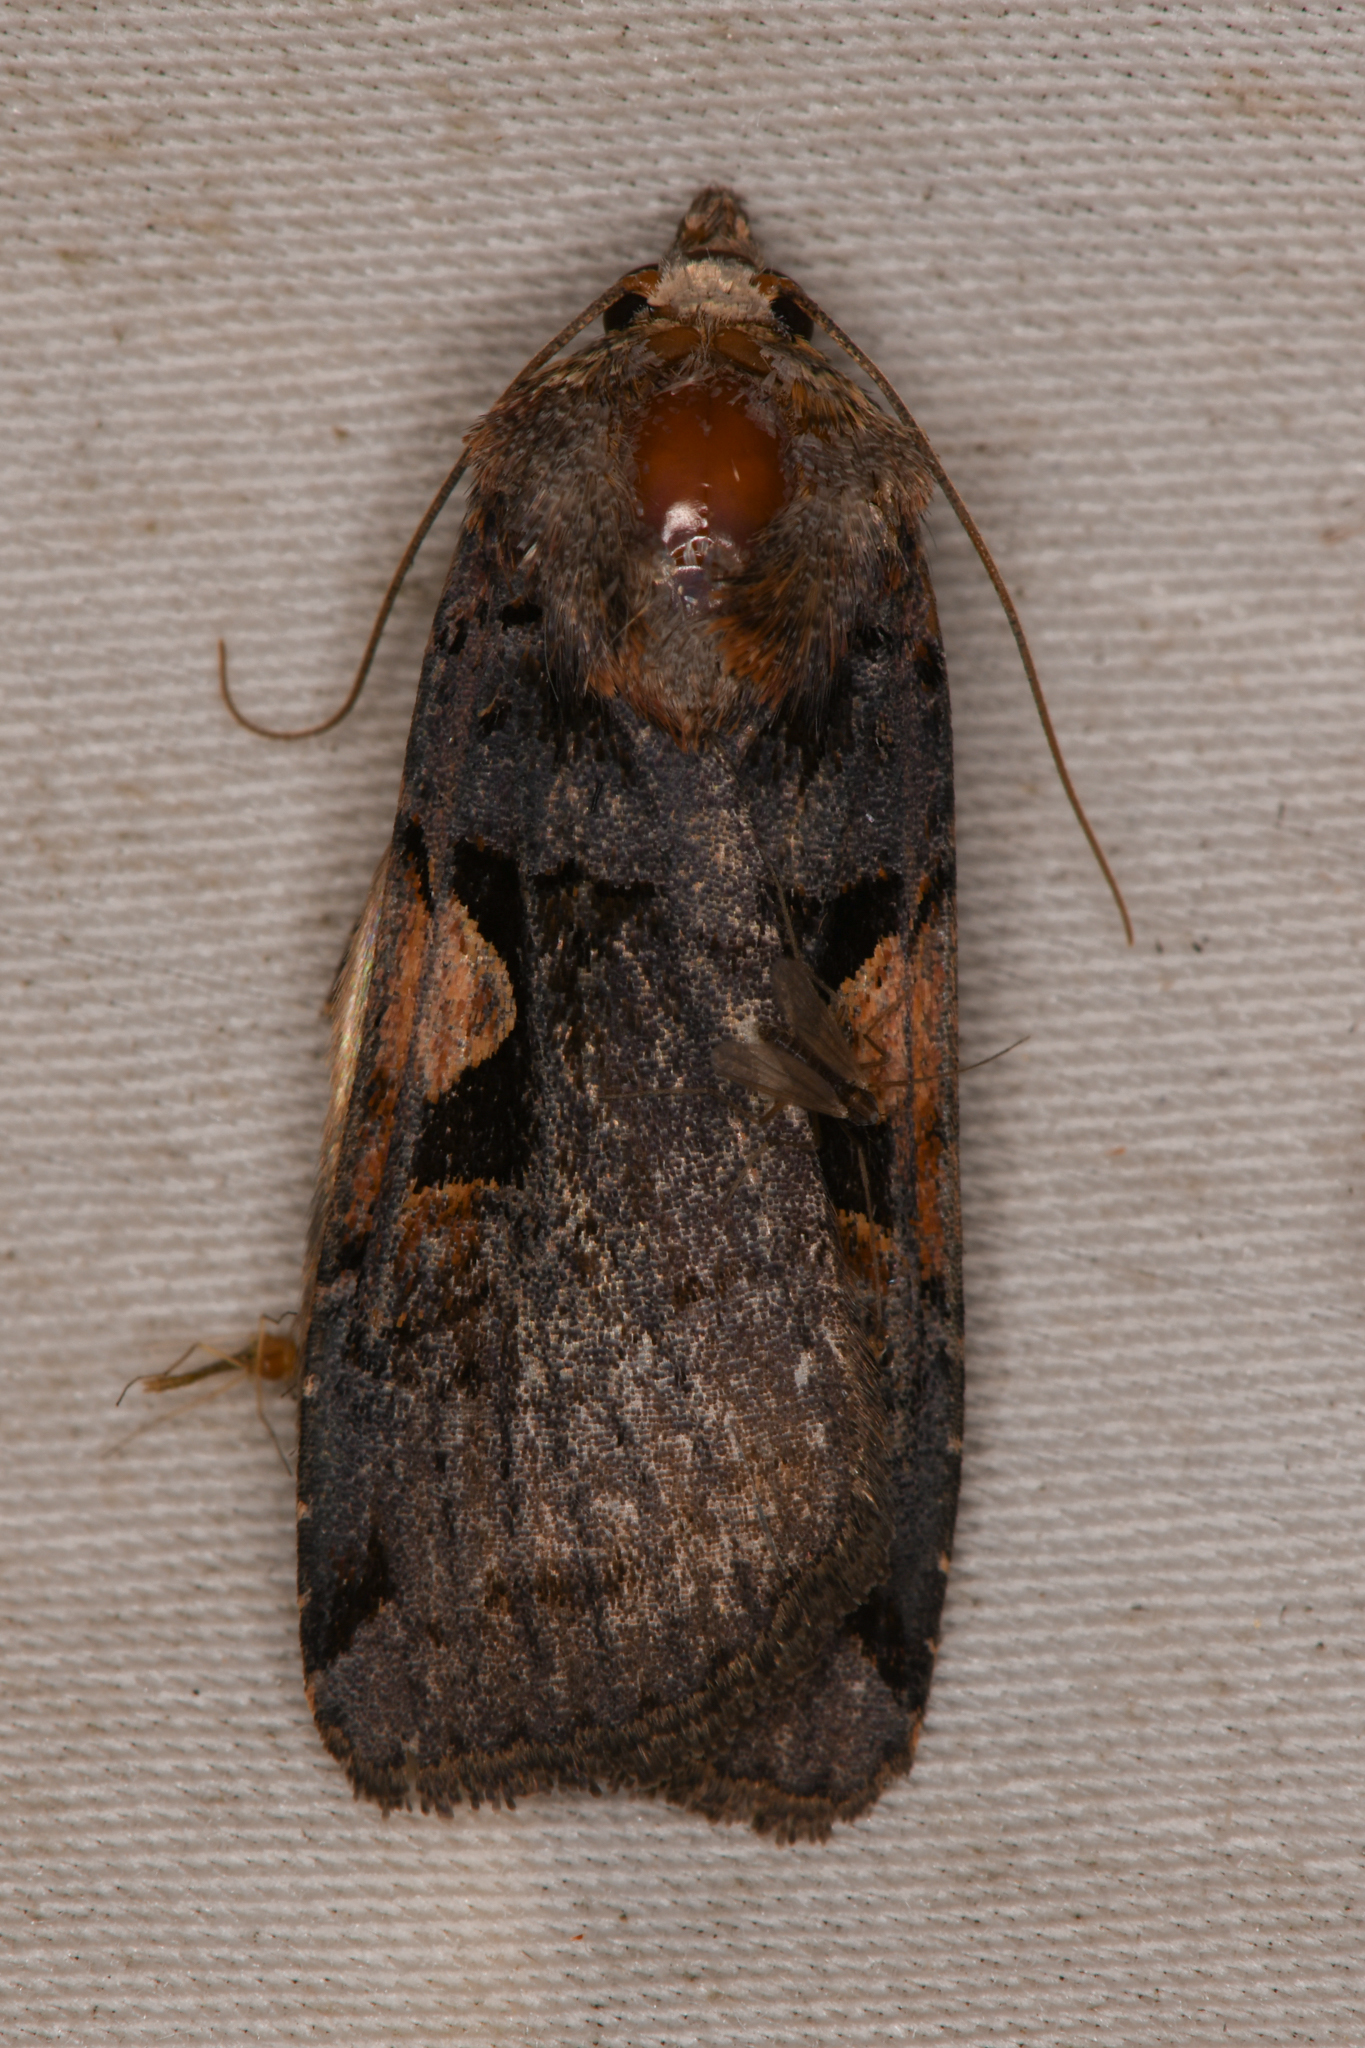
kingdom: Animalia
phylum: Arthropoda
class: Insecta
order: Lepidoptera
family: Noctuidae
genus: Xestia
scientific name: Xestia c-nigrum
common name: Setaceous hebrew character
